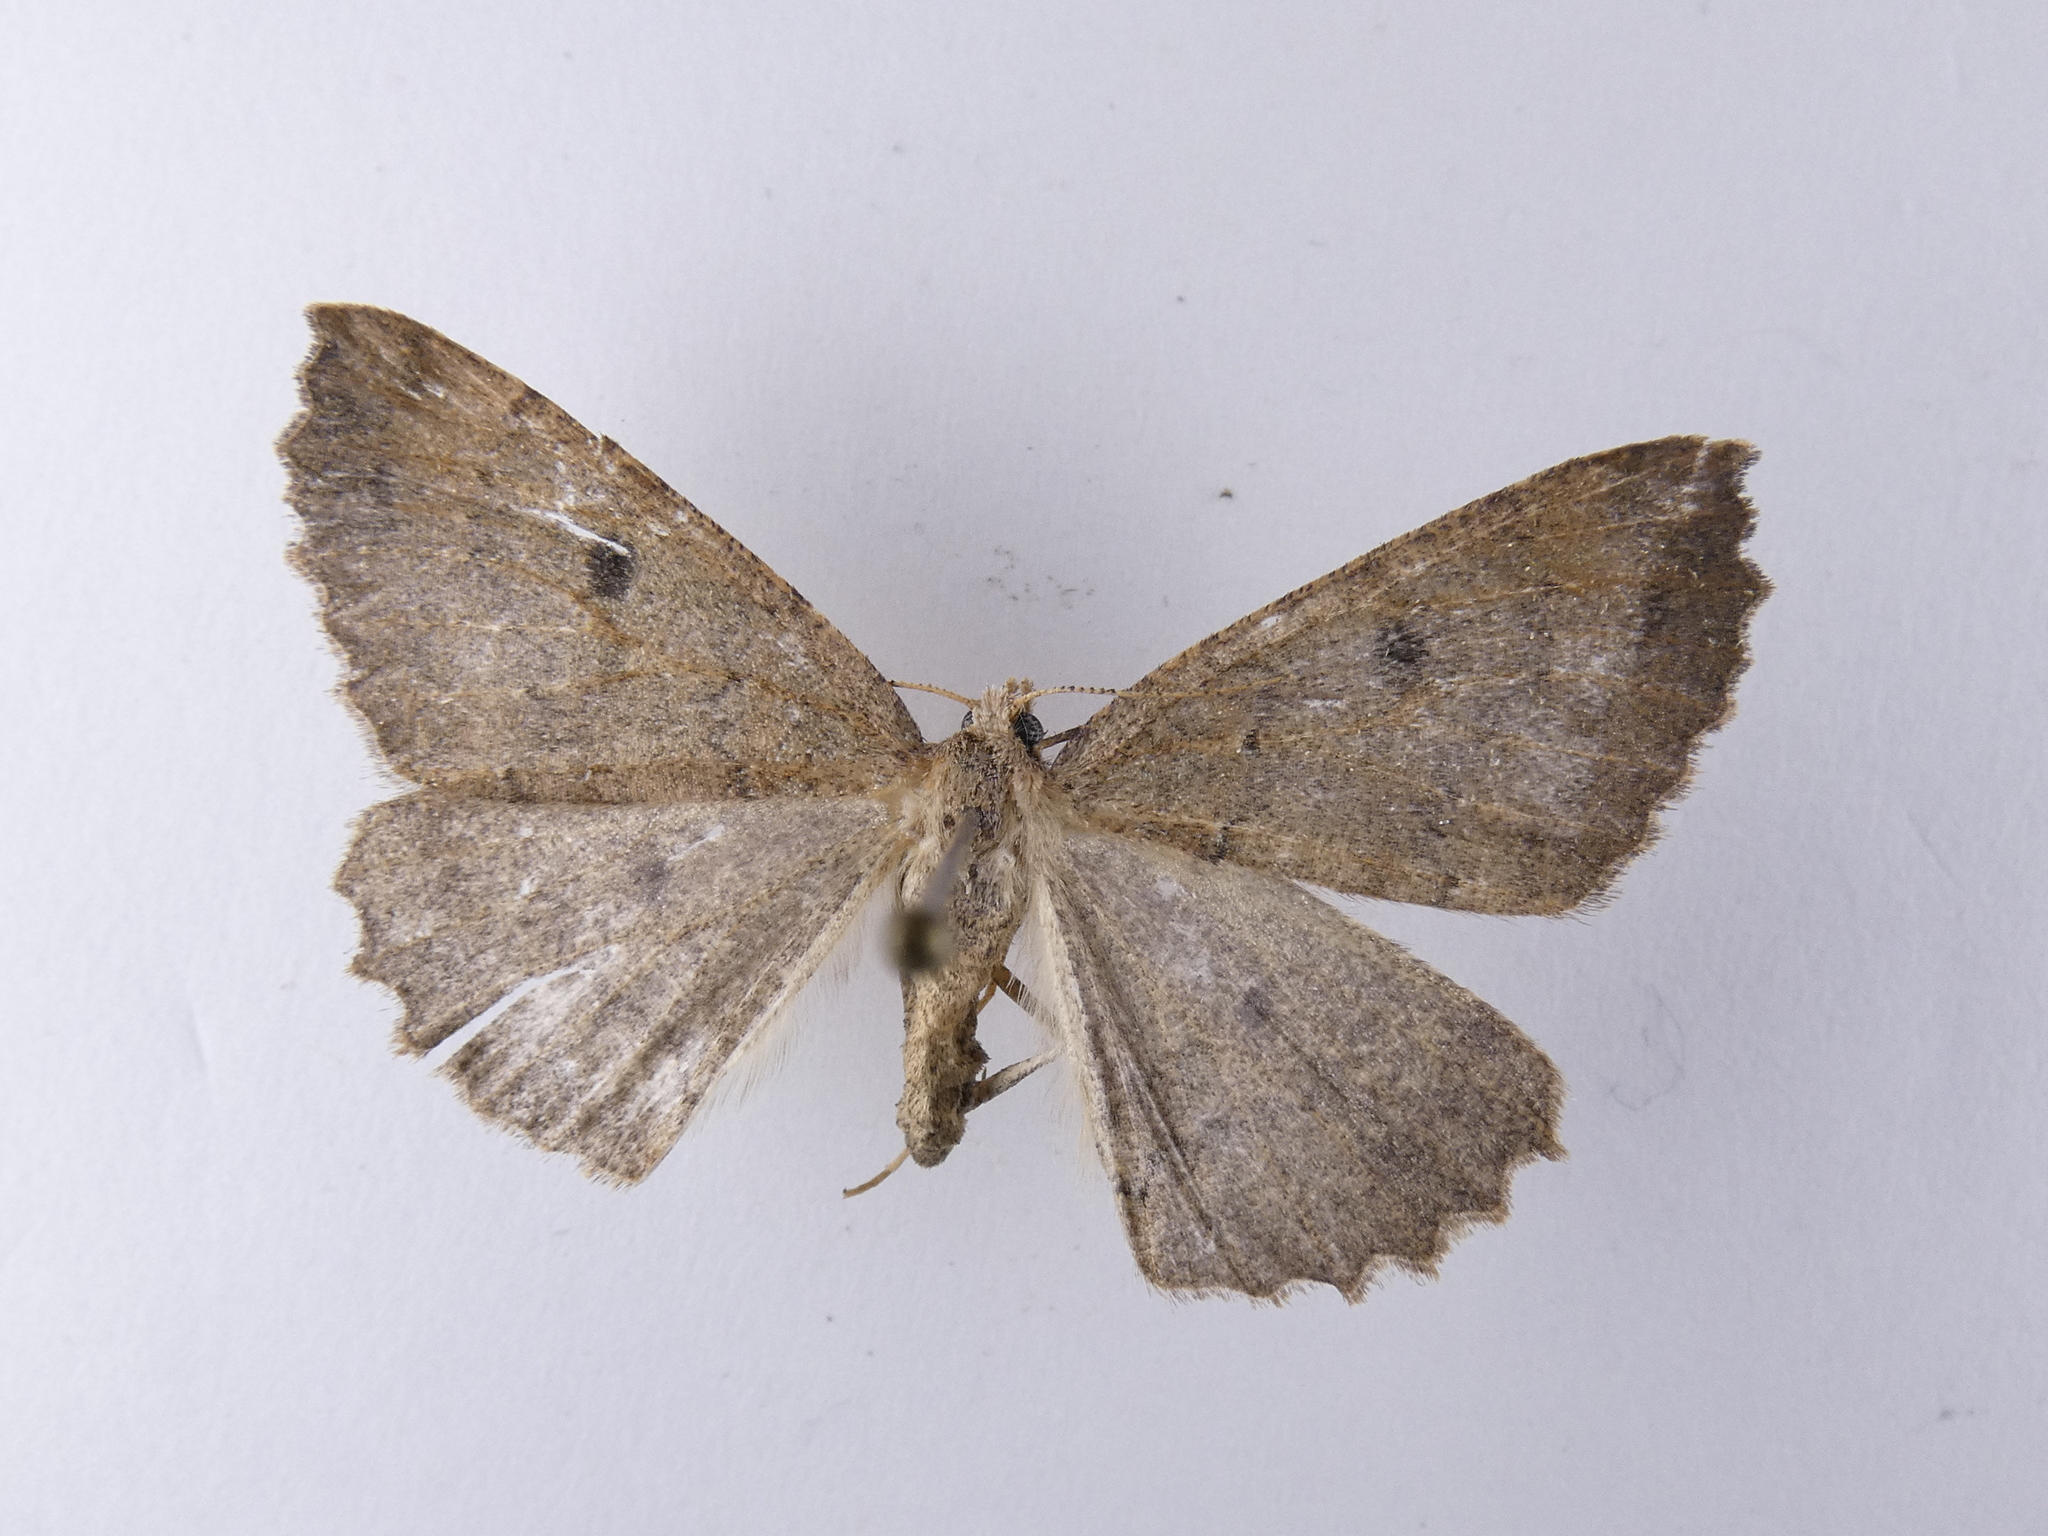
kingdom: Animalia
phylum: Arthropoda
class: Insecta
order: Lepidoptera
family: Geometridae
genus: Cleora
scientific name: Cleora scriptaria
